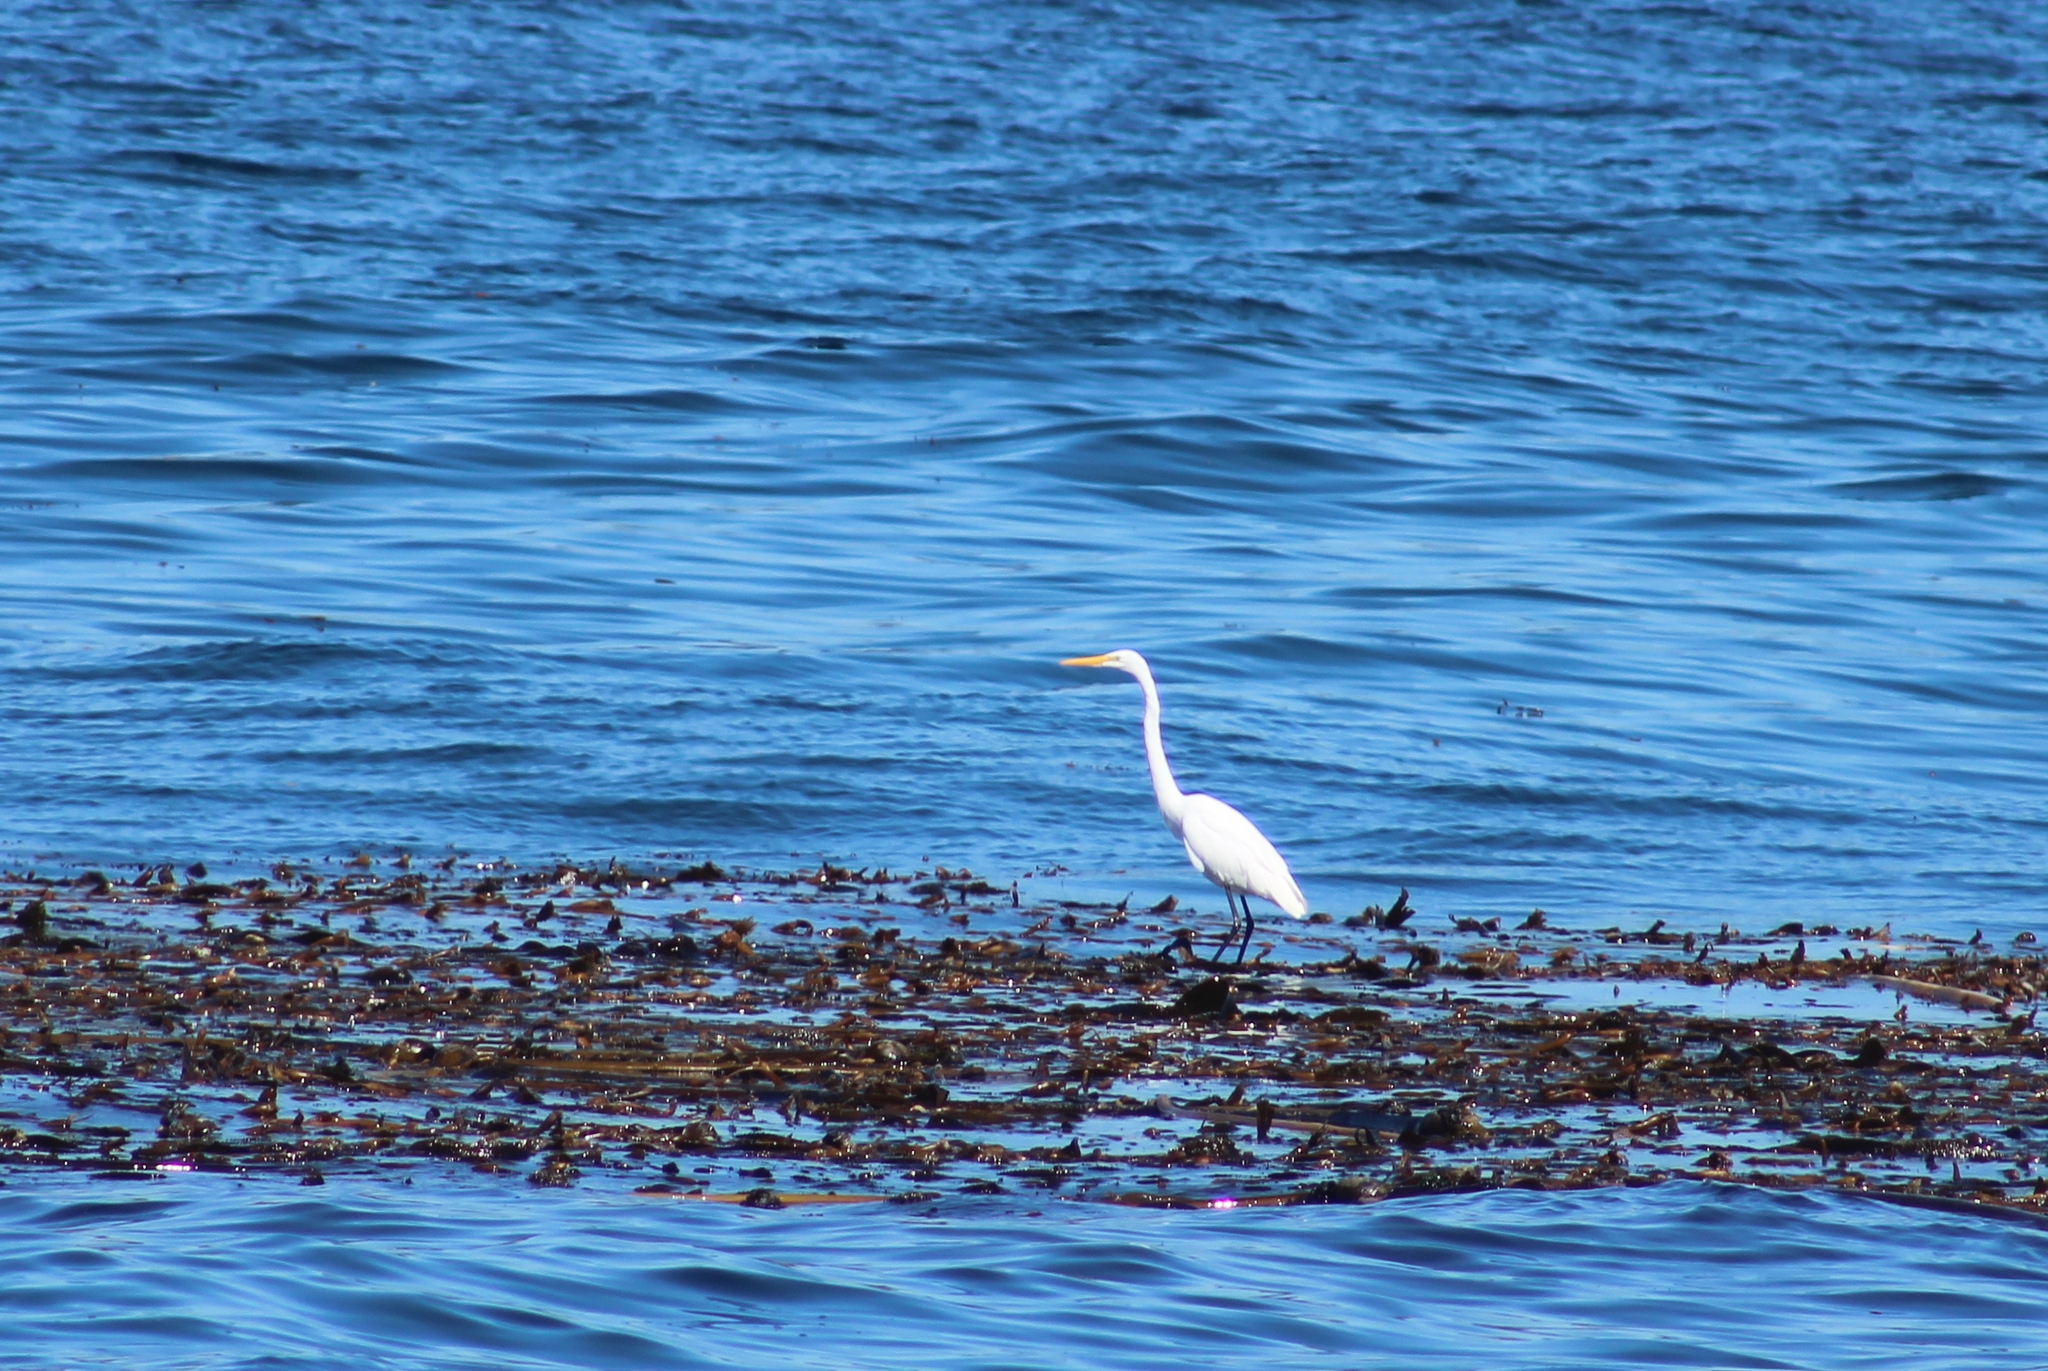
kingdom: Animalia
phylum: Chordata
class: Aves
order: Pelecaniformes
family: Ardeidae
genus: Ardea
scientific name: Ardea alba
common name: Great egret
